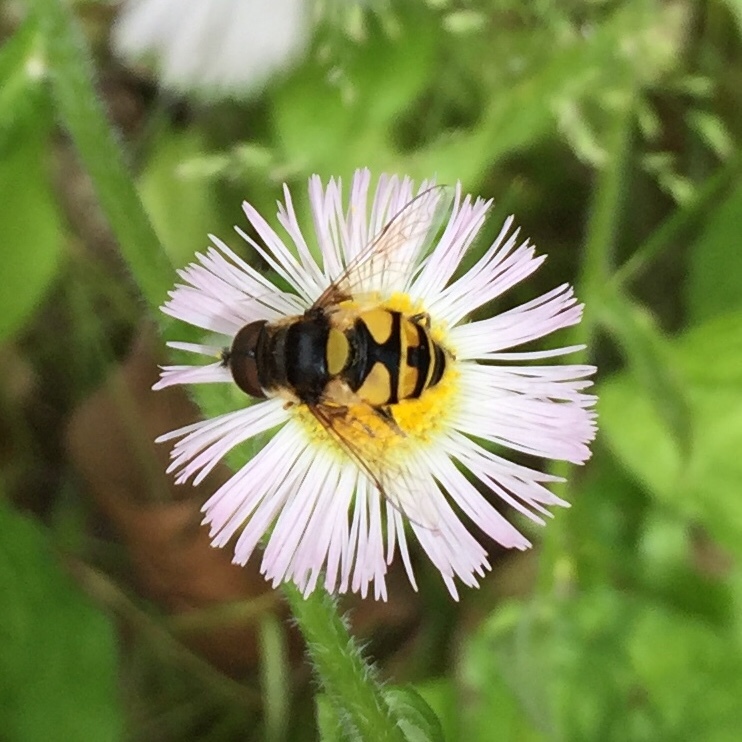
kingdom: Animalia
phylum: Arthropoda
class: Insecta
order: Diptera
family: Syrphidae
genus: Eristalis
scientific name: Eristalis transversa
